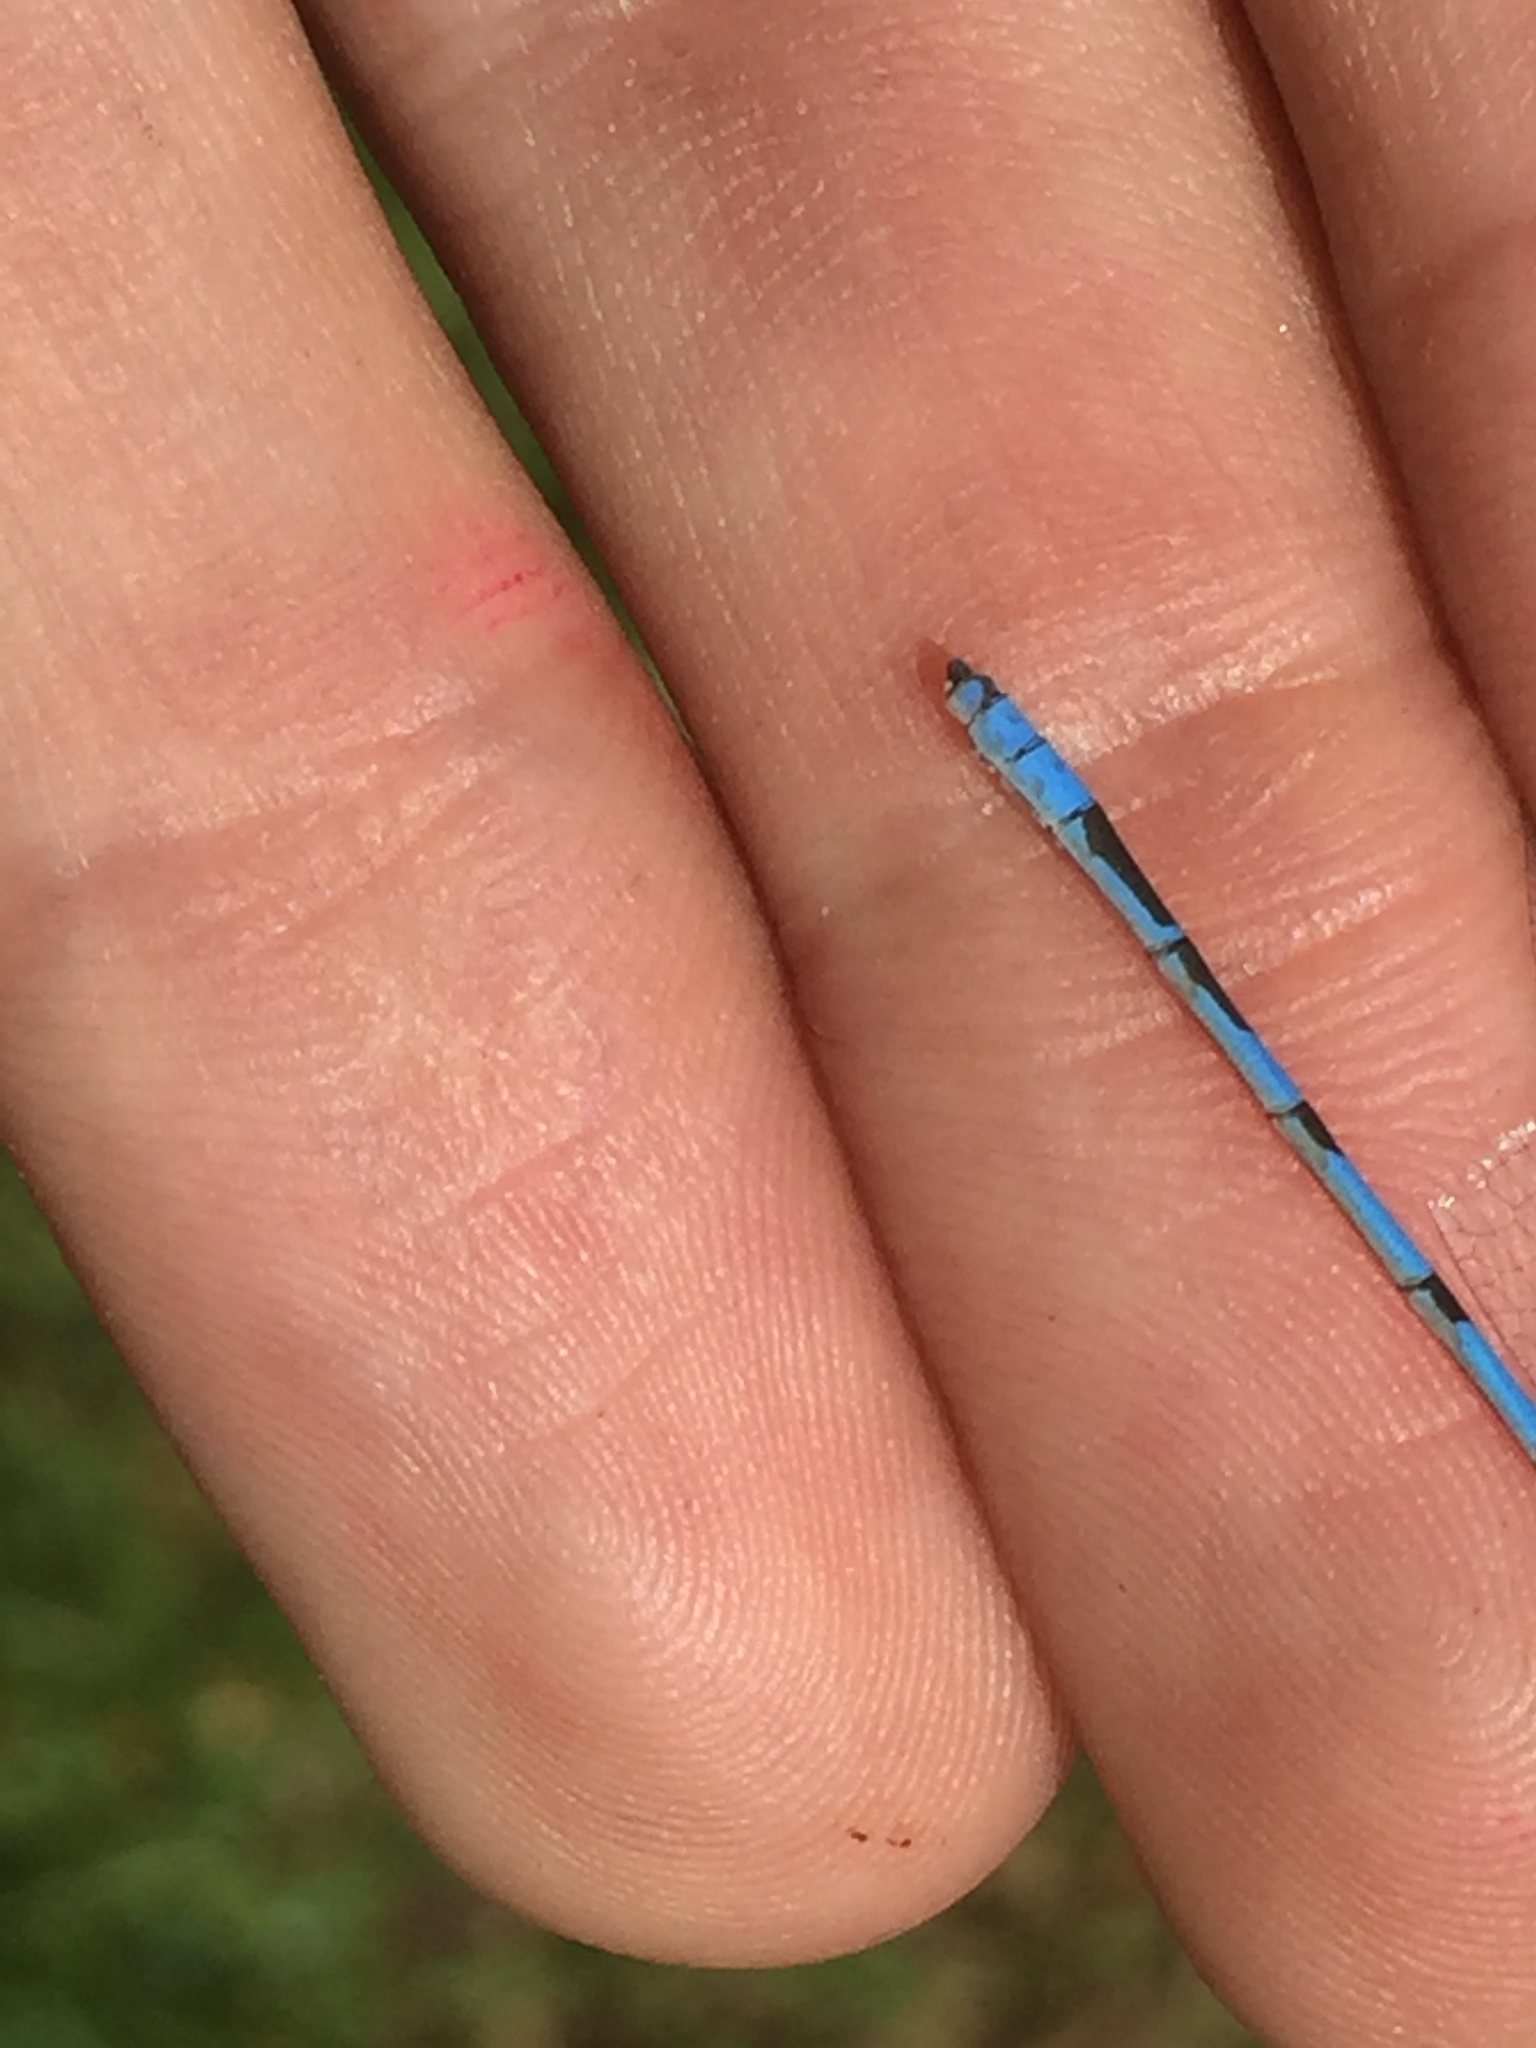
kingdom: Animalia
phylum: Arthropoda
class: Insecta
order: Odonata
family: Coenagrionidae
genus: Enallagma
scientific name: Enallagma civile
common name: Damselfly
